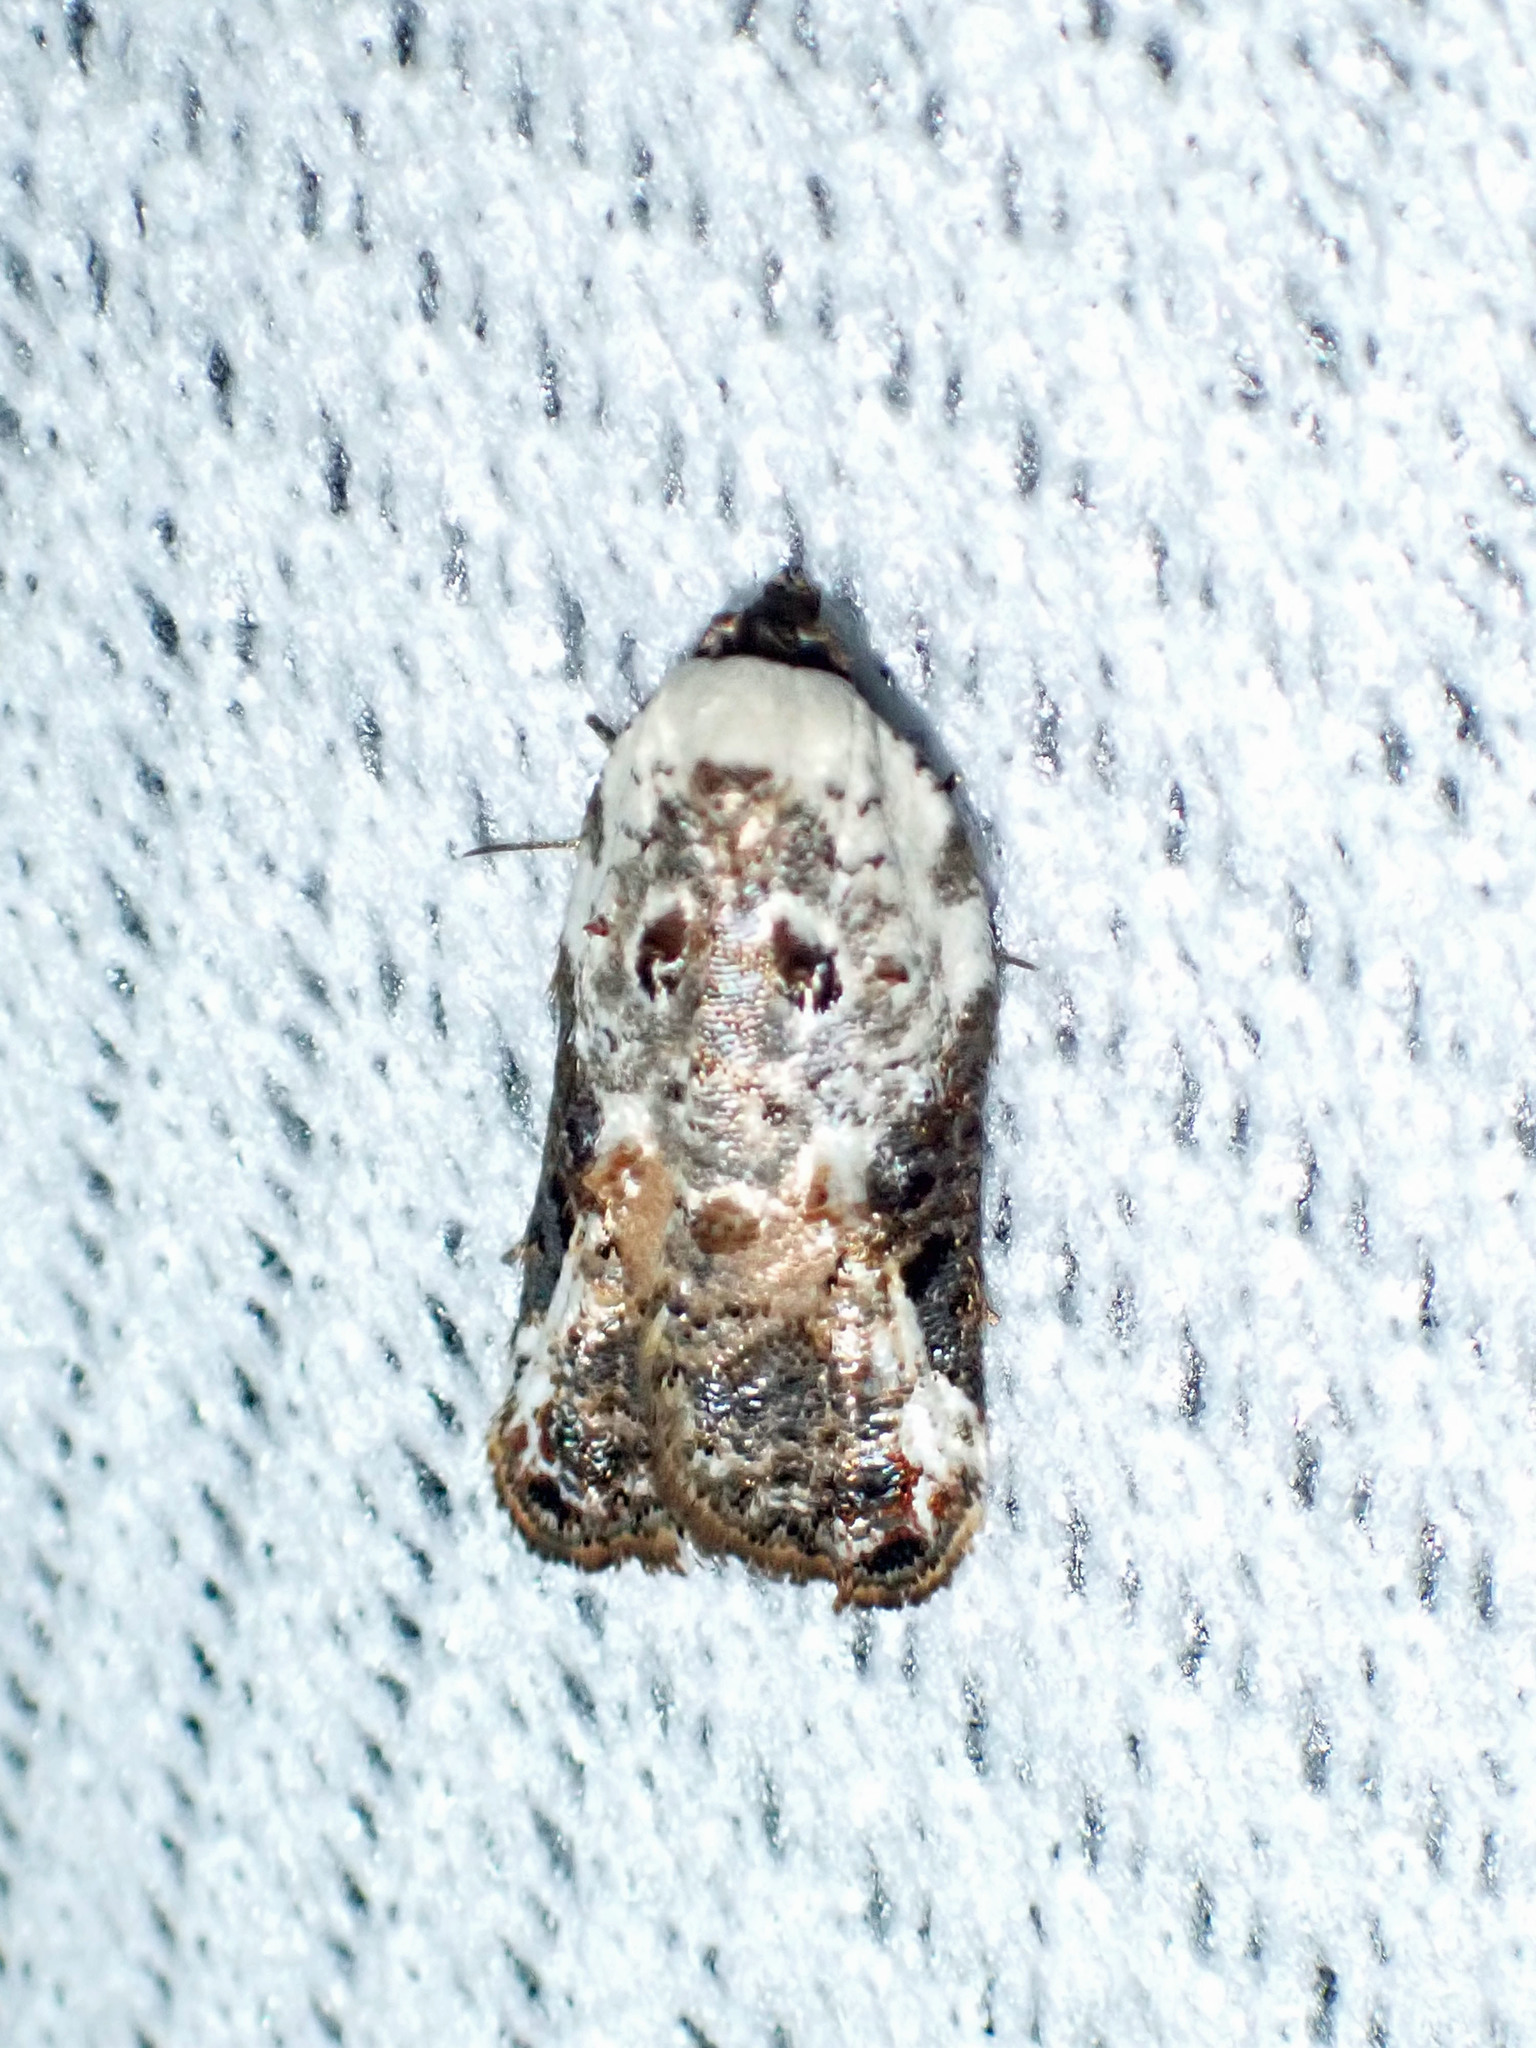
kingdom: Animalia
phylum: Arthropoda
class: Insecta
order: Lepidoptera
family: Tortricidae
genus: Acleris
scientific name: Acleris nivisellana
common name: Snowy-shouldered acleris moth
